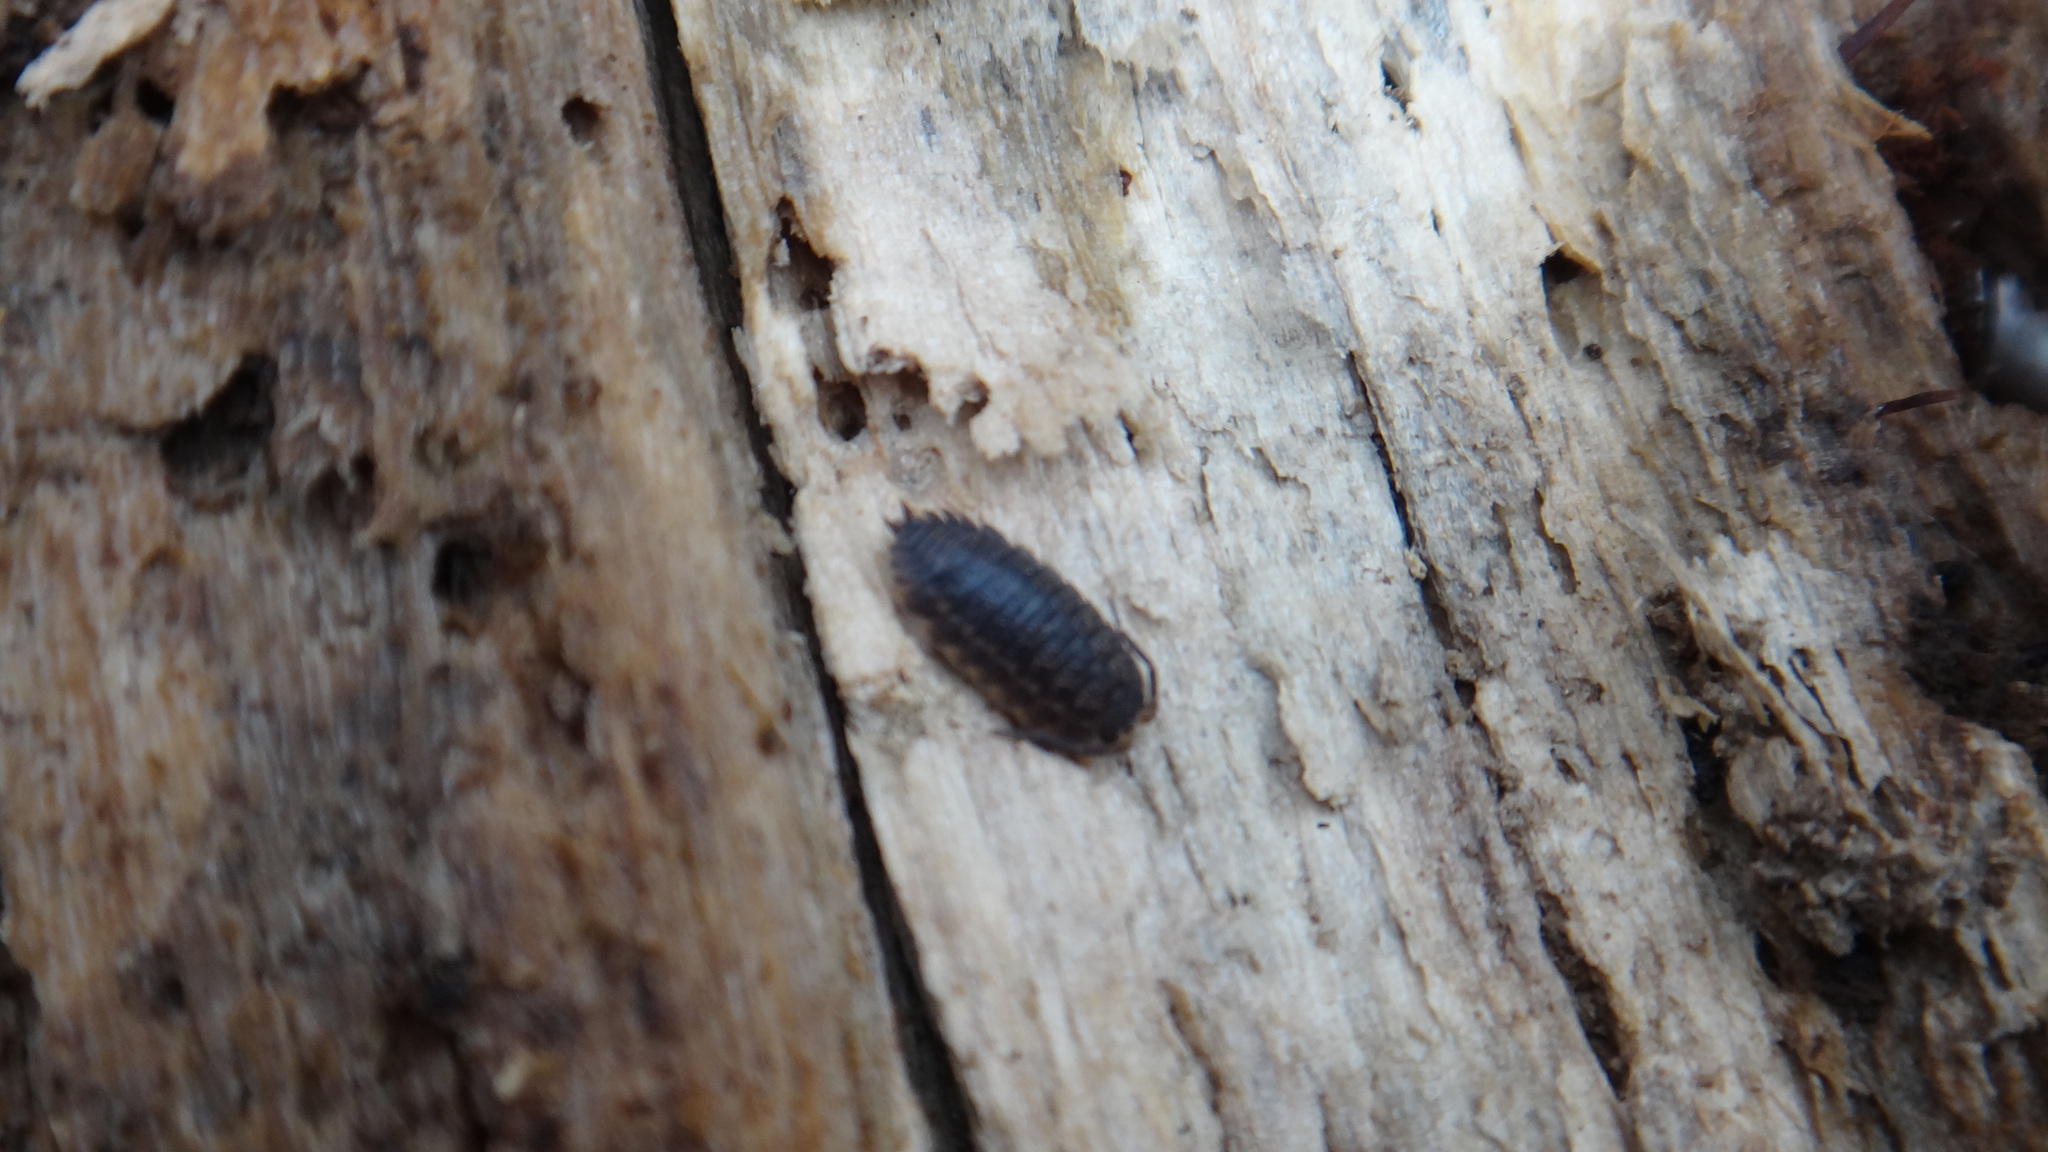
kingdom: Animalia
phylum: Arthropoda
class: Malacostraca
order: Isopoda
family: Trachelipodidae
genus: Trachelipus
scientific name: Trachelipus rathkii
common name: Isopod
